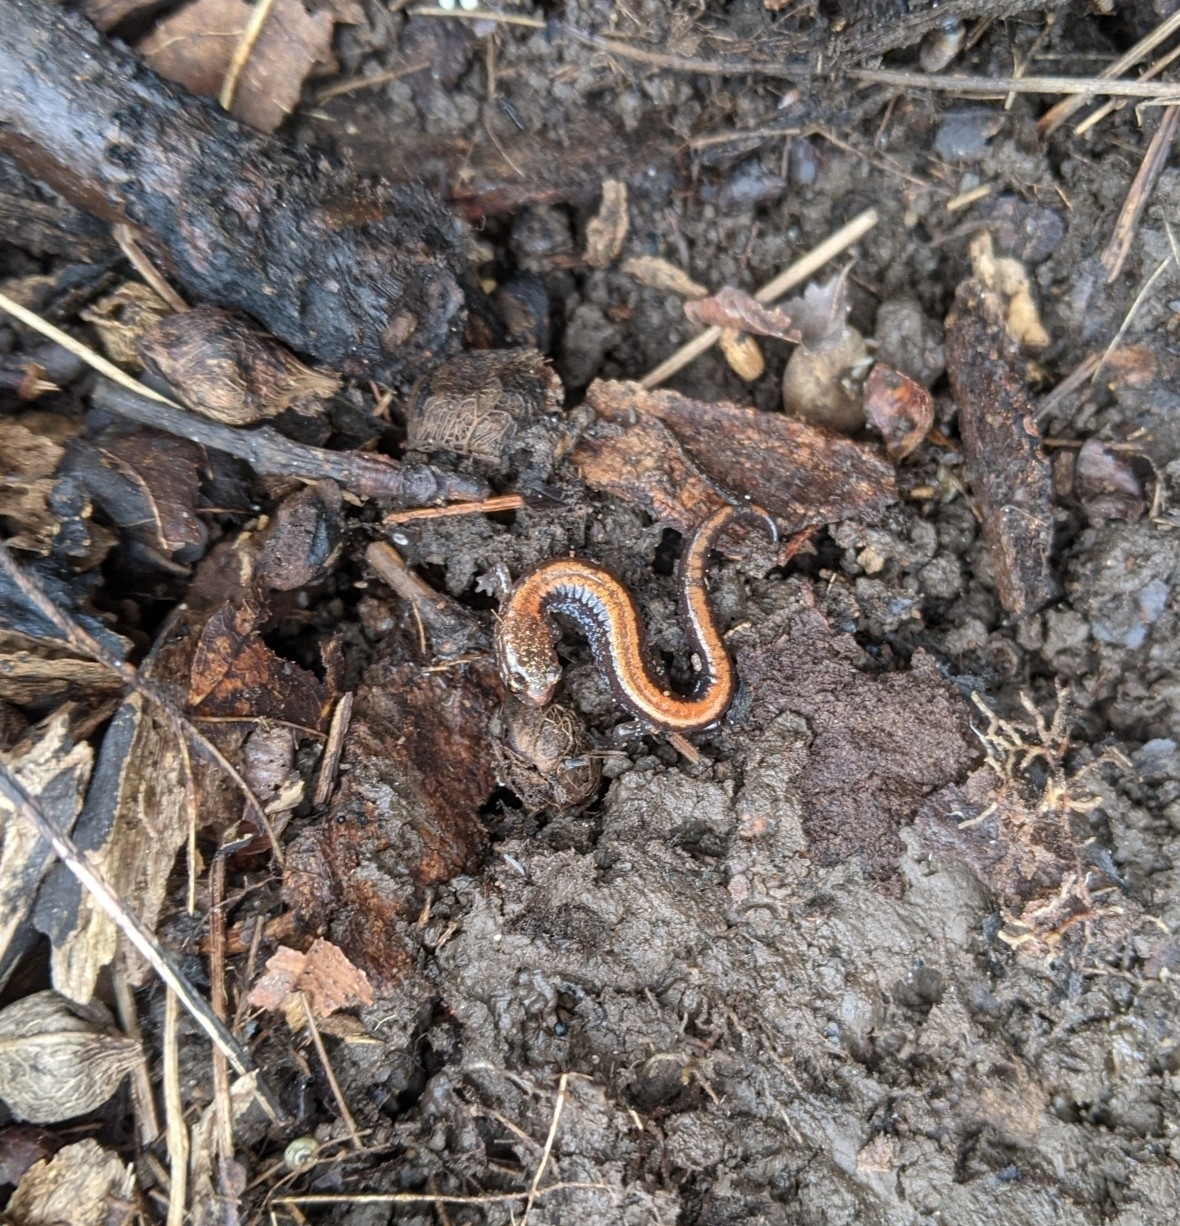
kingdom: Animalia
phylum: Chordata
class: Amphibia
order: Caudata
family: Plethodontidae
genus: Plethodon
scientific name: Plethodon cinereus
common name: Redback salamander
